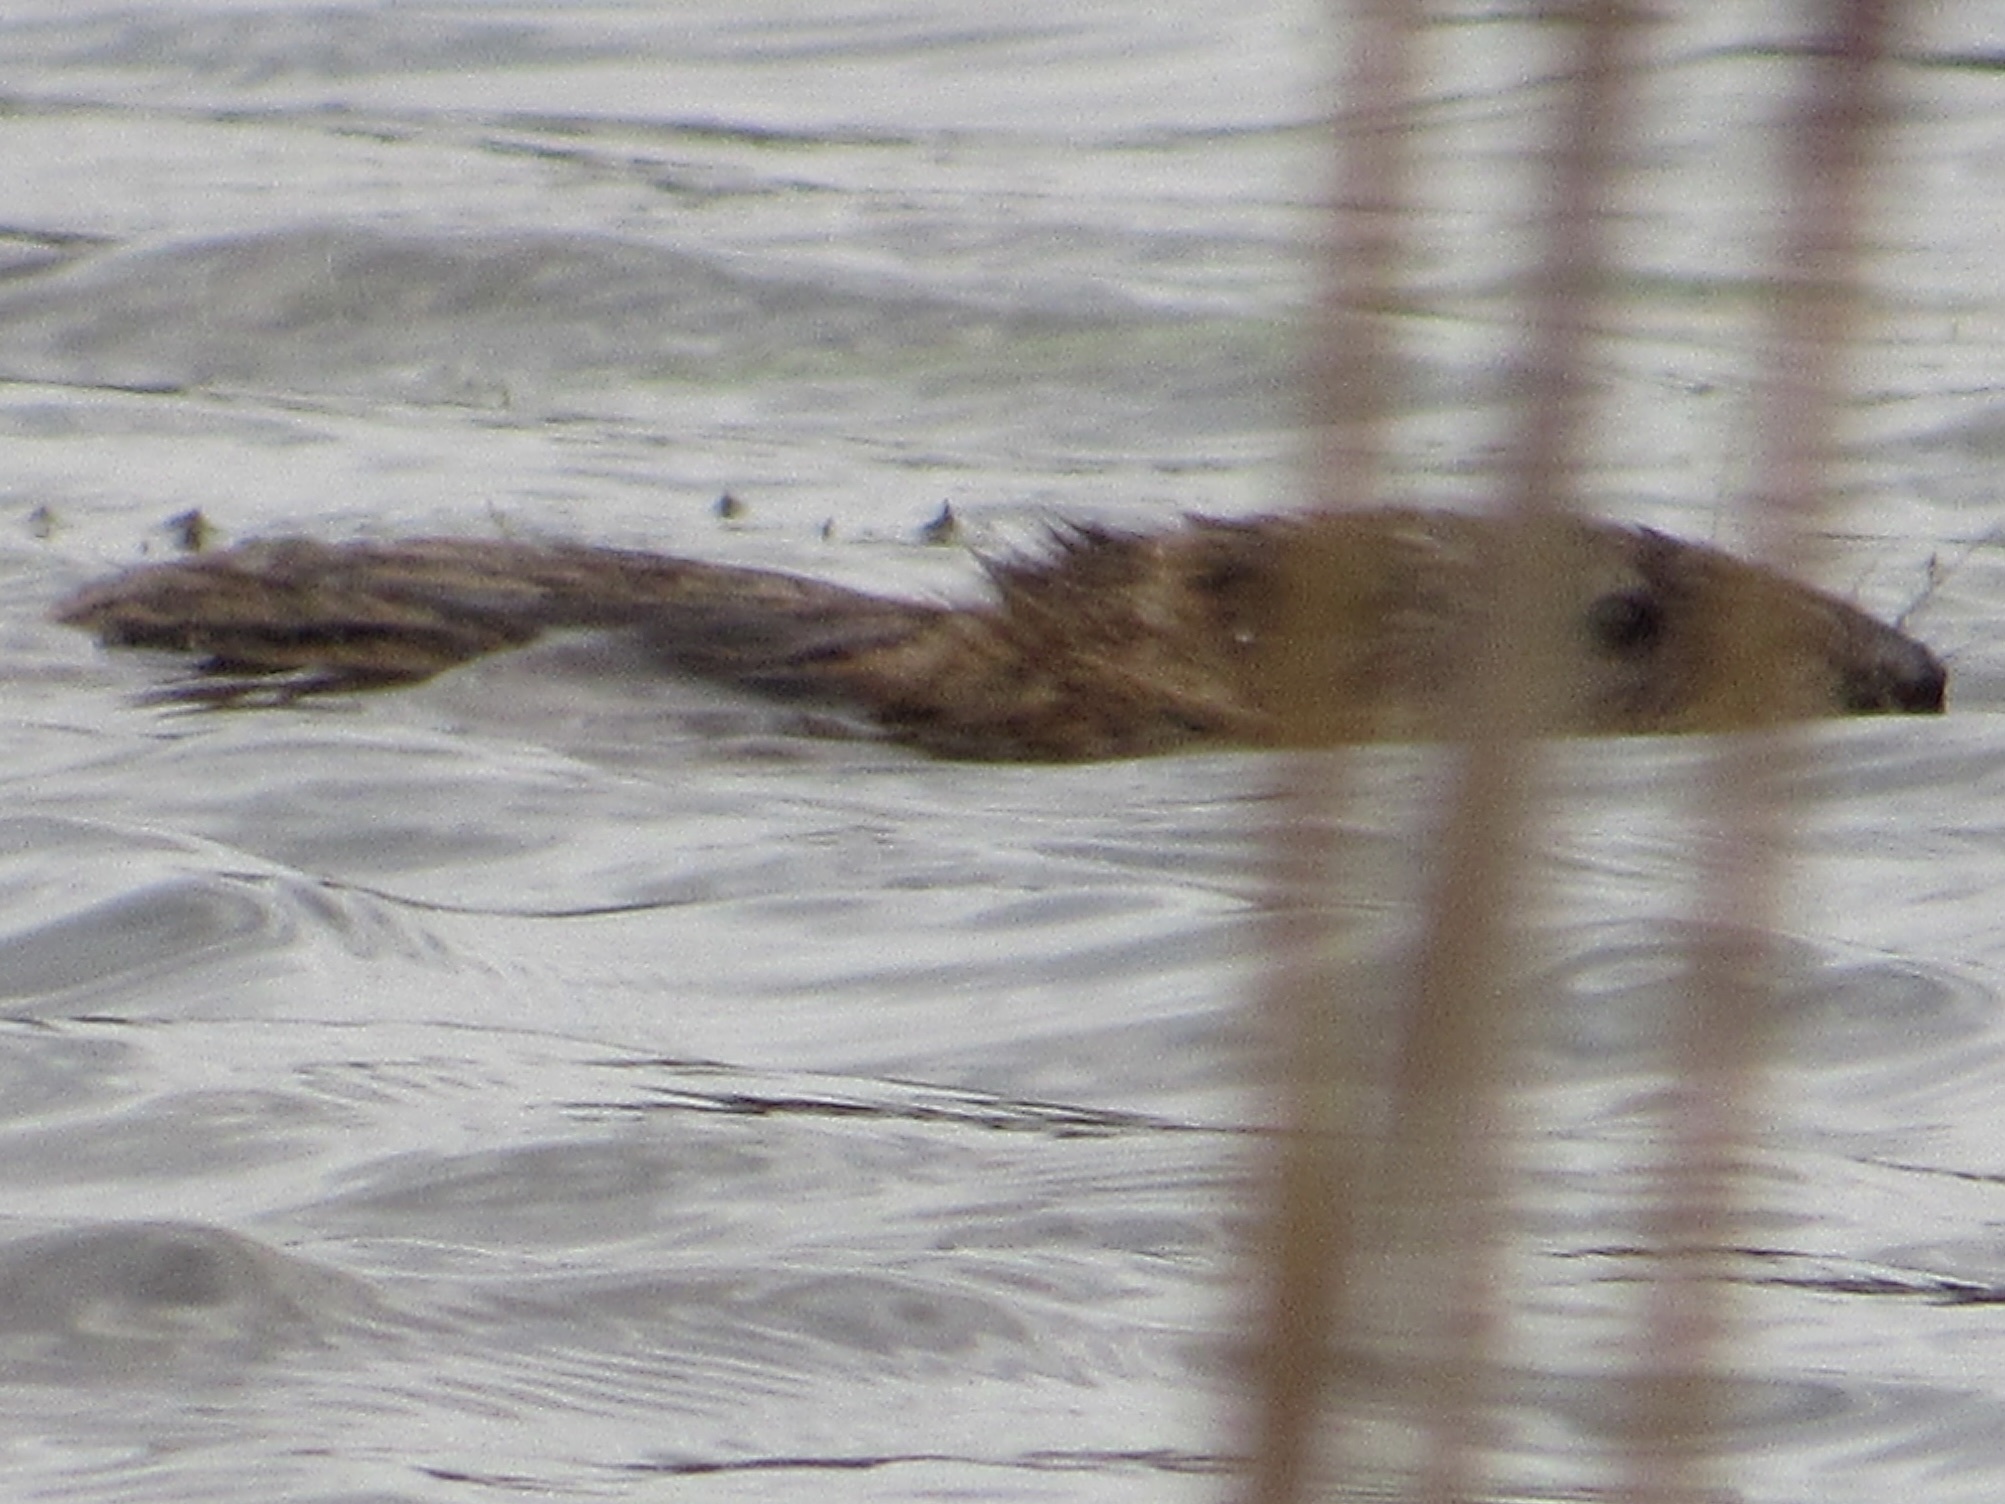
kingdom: Animalia
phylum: Chordata
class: Mammalia
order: Rodentia
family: Cricetidae
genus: Ondatra
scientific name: Ondatra zibethicus
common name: Muskrat
